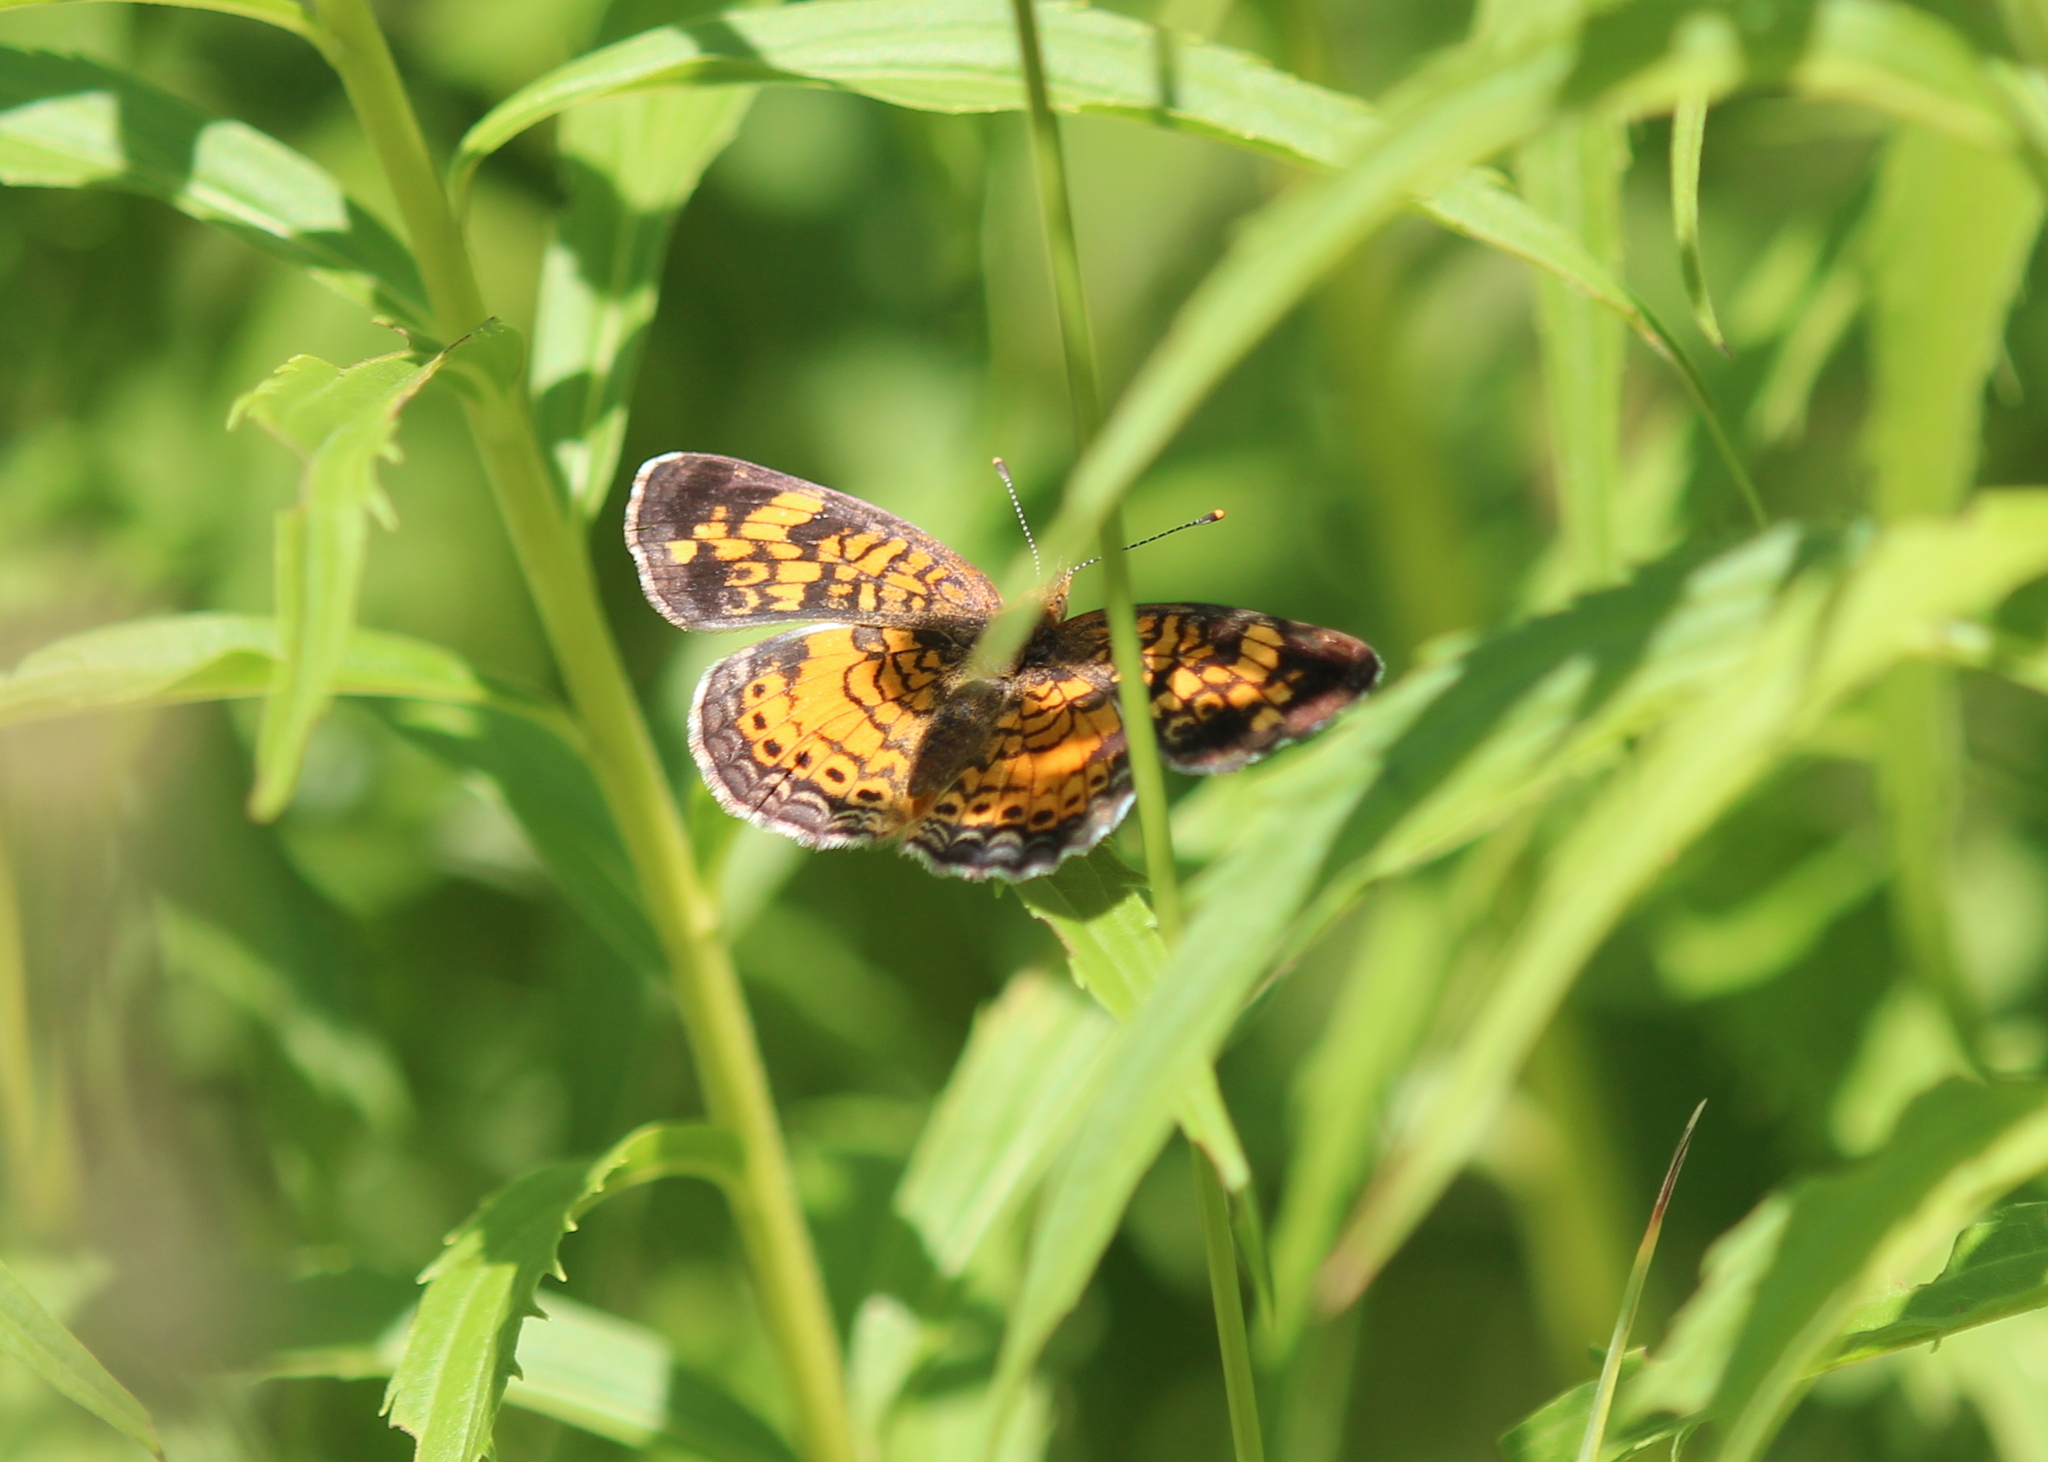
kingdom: Animalia
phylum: Arthropoda
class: Insecta
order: Lepidoptera
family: Nymphalidae
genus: Phyciodes
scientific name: Phyciodes tharos
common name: Pearl crescent
